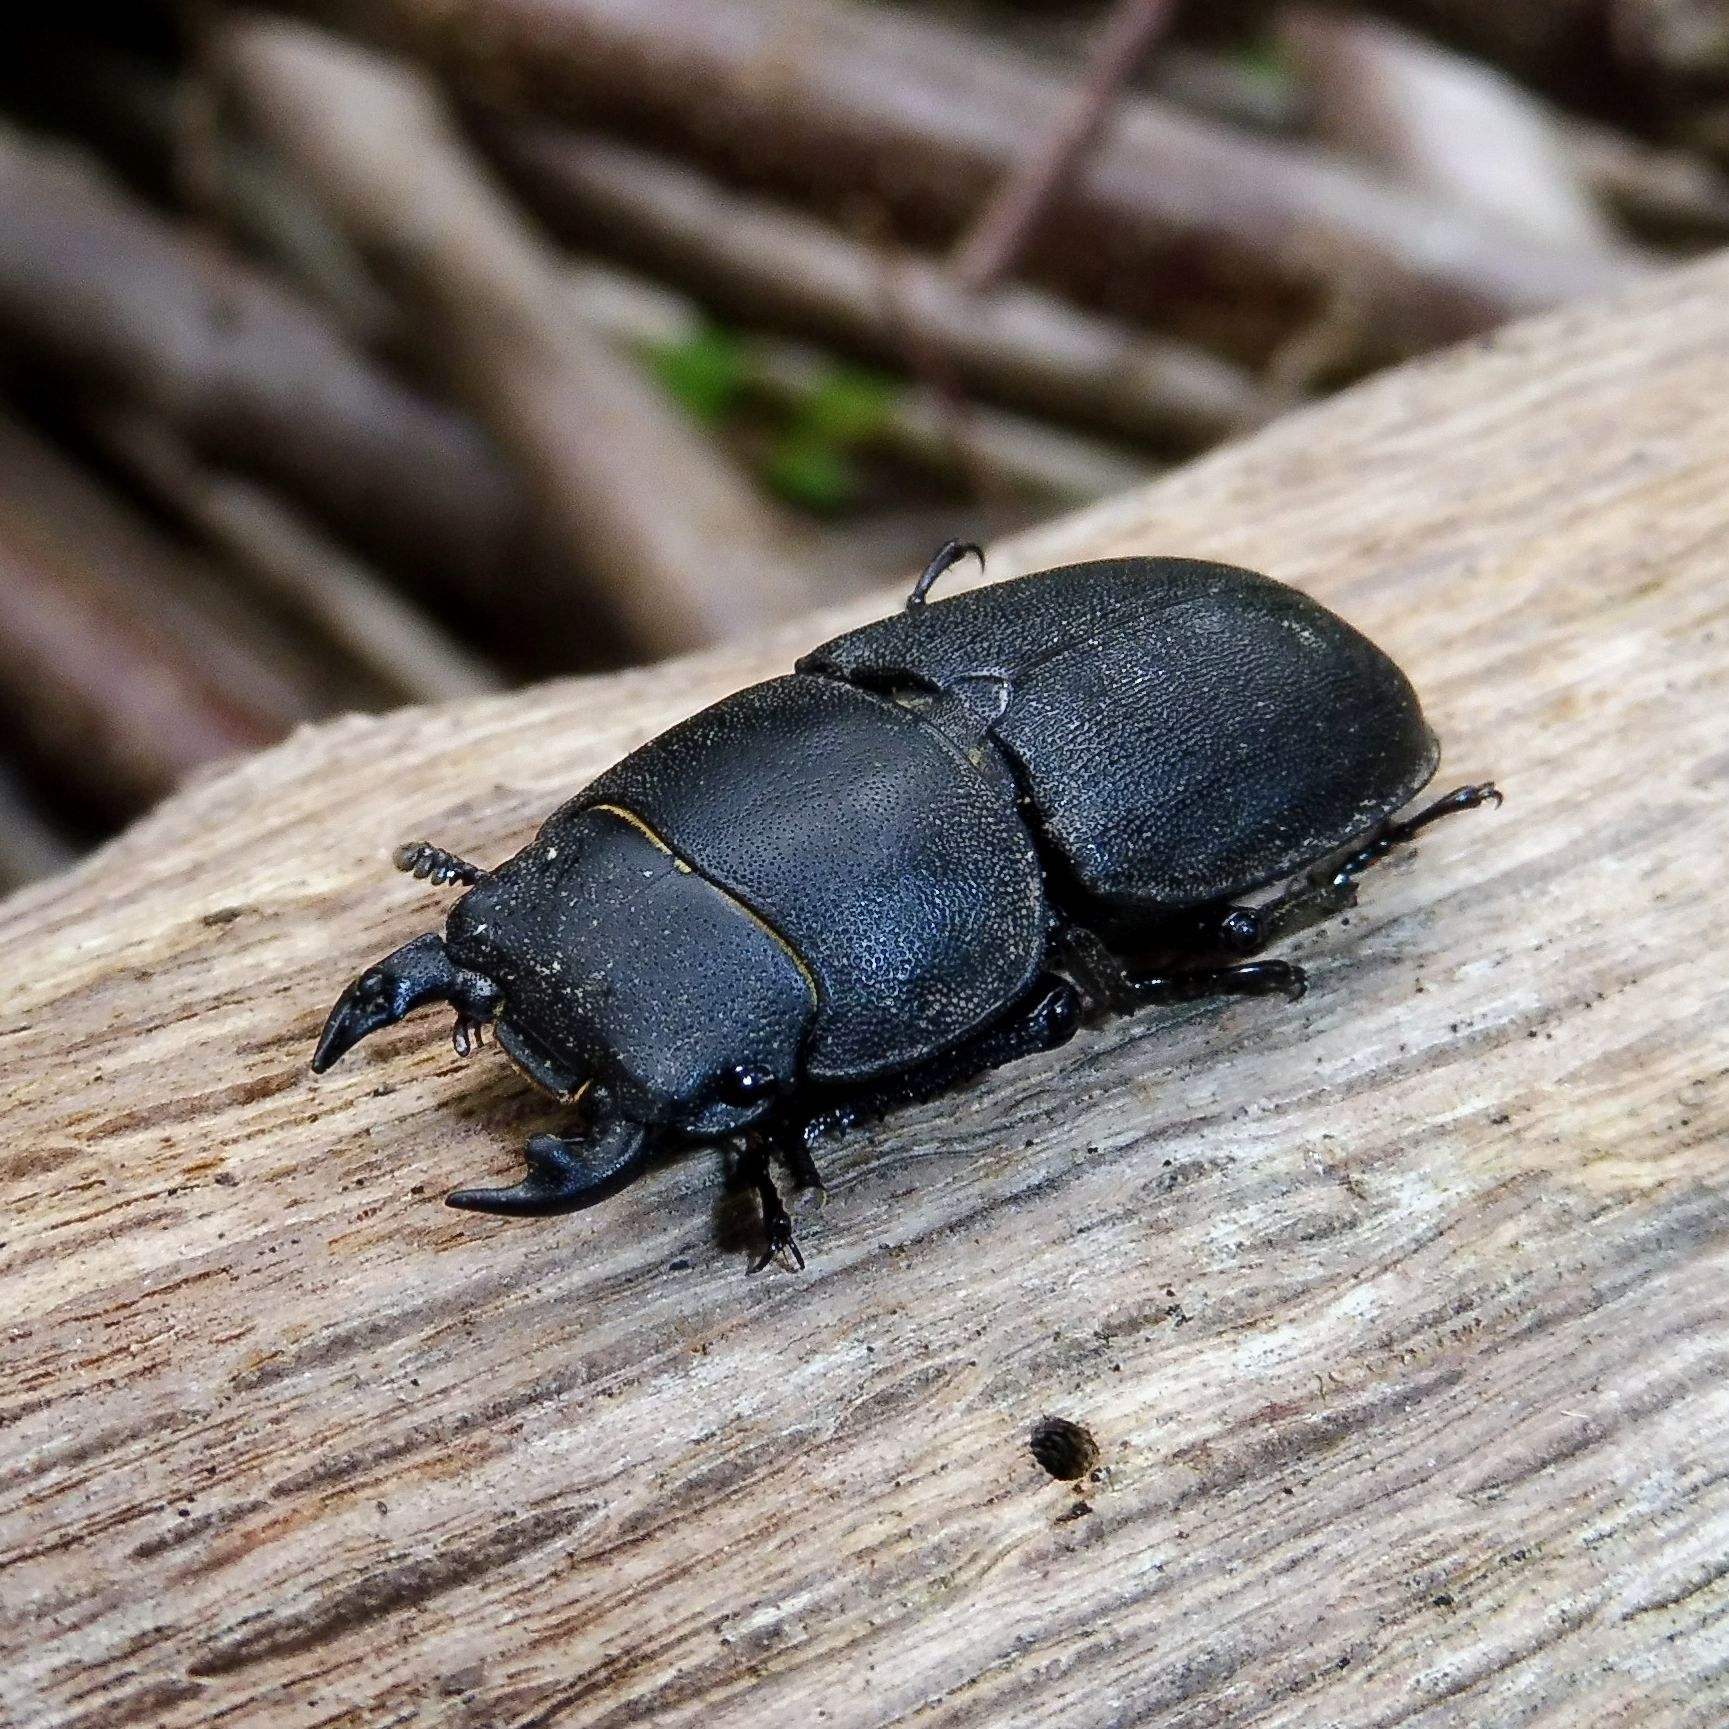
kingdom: Animalia
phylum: Arthropoda
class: Insecta
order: Coleoptera
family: Lucanidae
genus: Dorcus
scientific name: Dorcus parallelipipedus
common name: Lesser stag beetle
